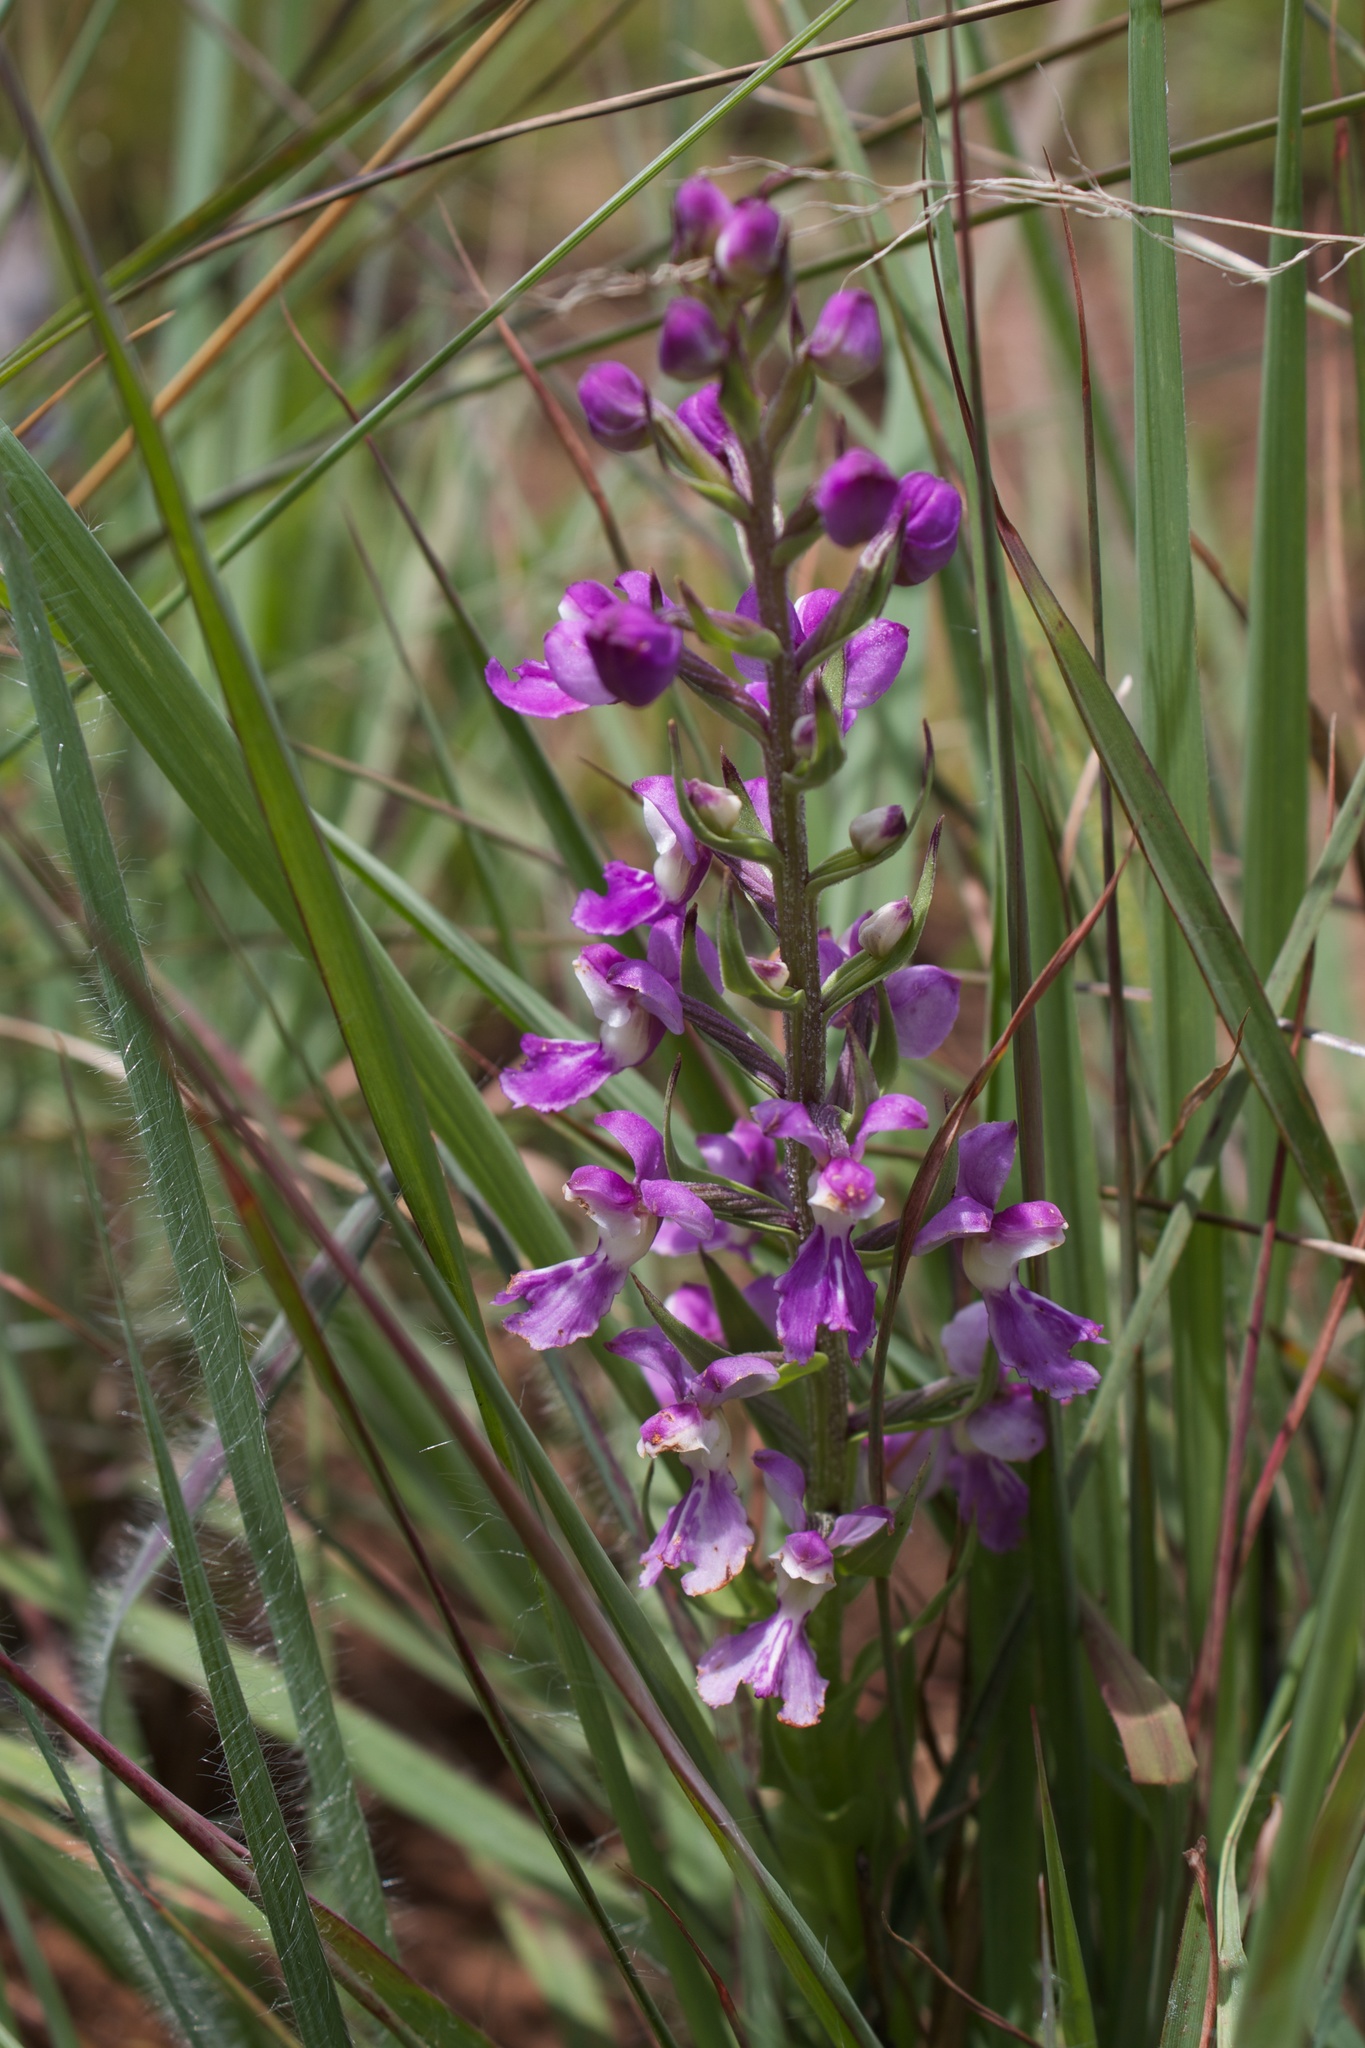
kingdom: Plantae
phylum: Tracheophyta
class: Liliopsida
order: Asparagales
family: Orchidaceae
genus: Brachycorythis
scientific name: Brachycorythis pleistophylla
